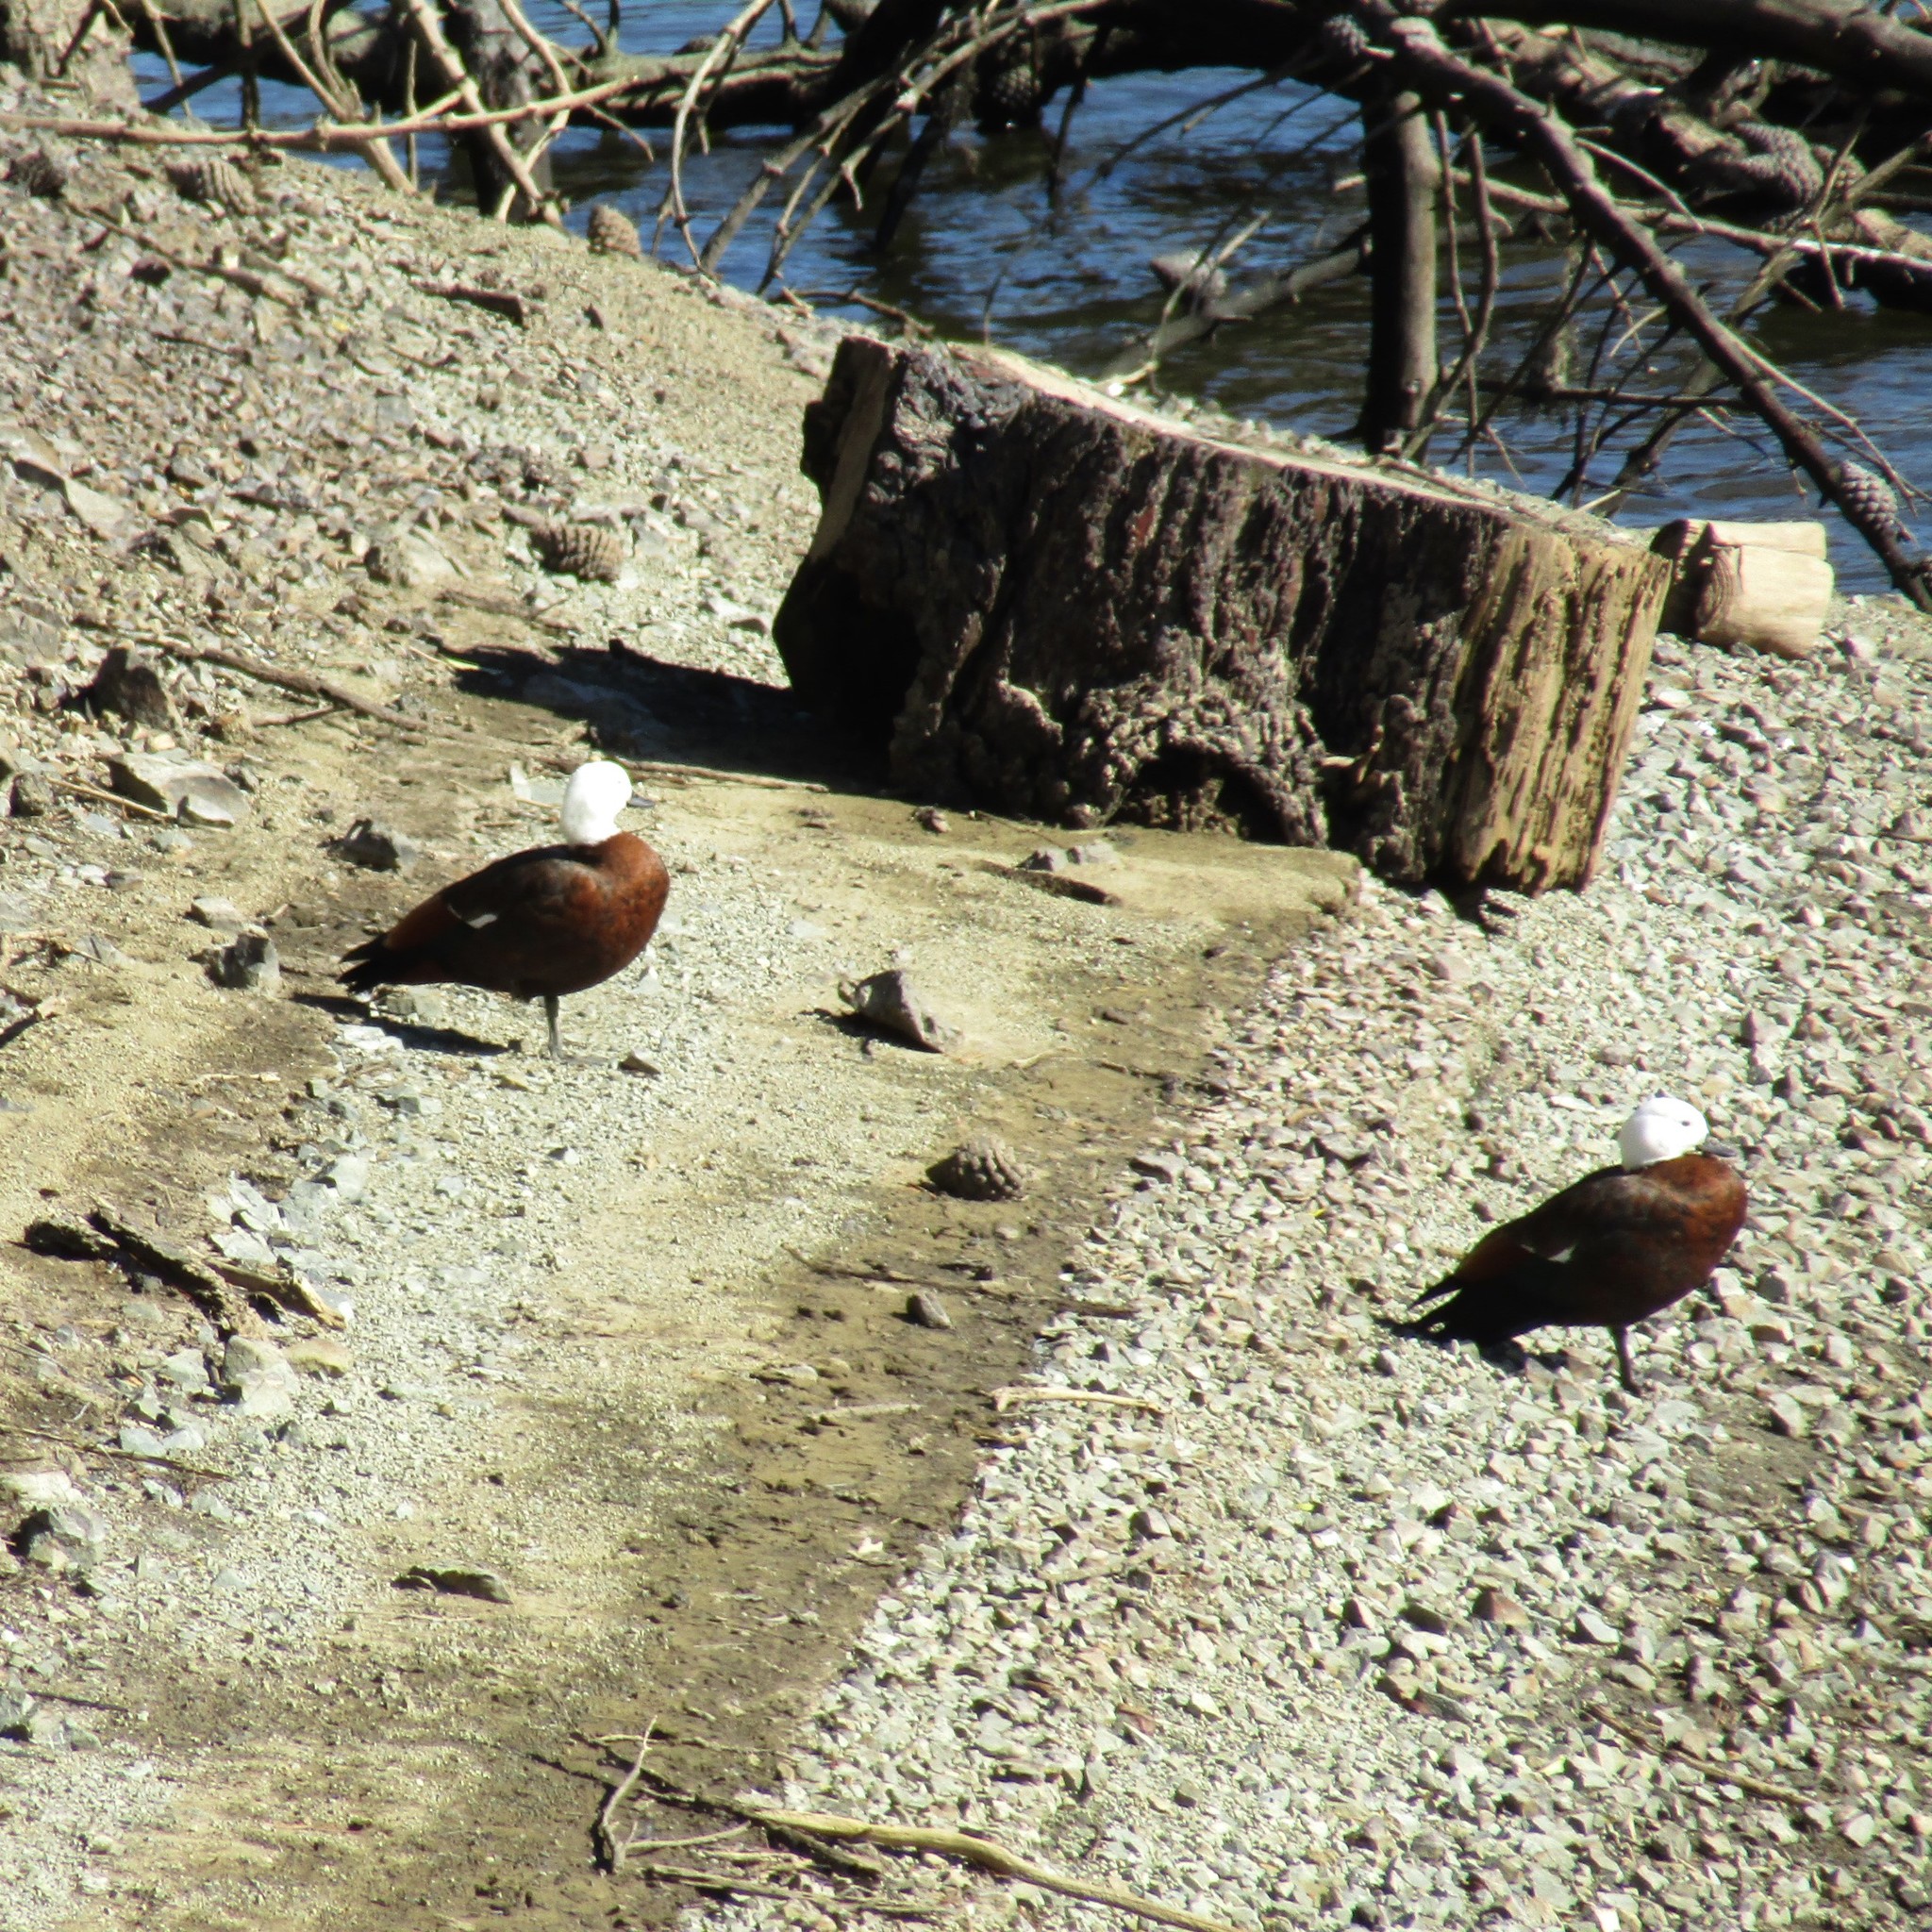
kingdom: Animalia
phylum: Chordata
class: Aves
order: Anseriformes
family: Anatidae
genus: Tadorna
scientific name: Tadorna variegata
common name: Paradise shelduck
